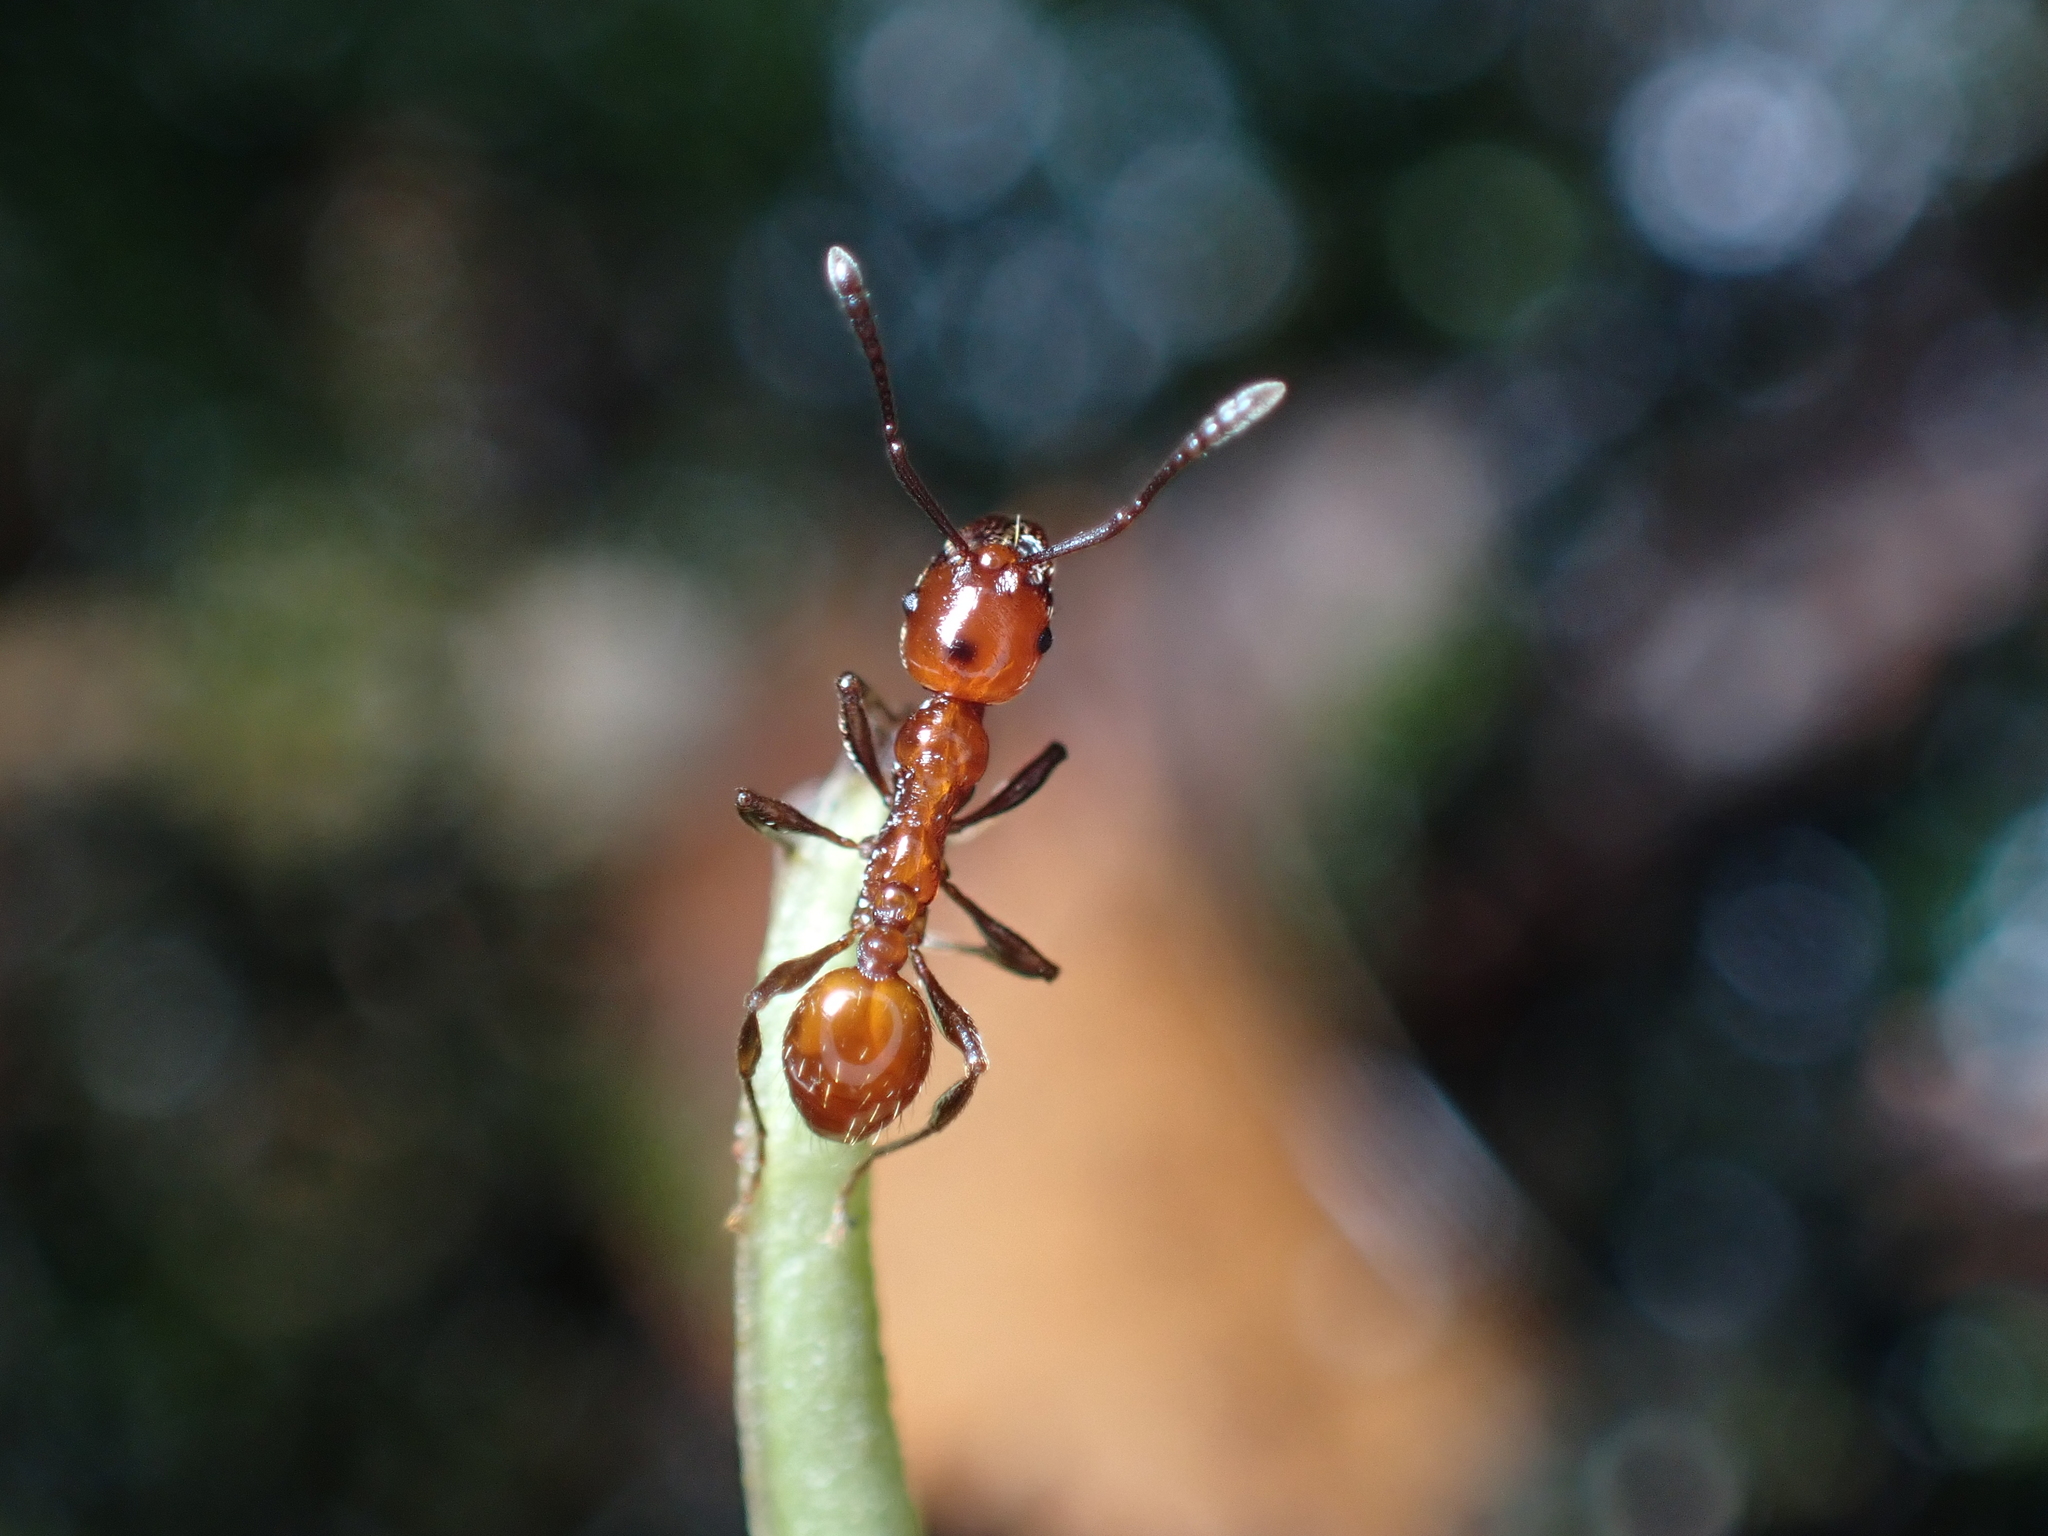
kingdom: Animalia
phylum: Arthropoda
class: Insecta
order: Hymenoptera
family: Formicidae
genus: Huberia
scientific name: Huberia striata
